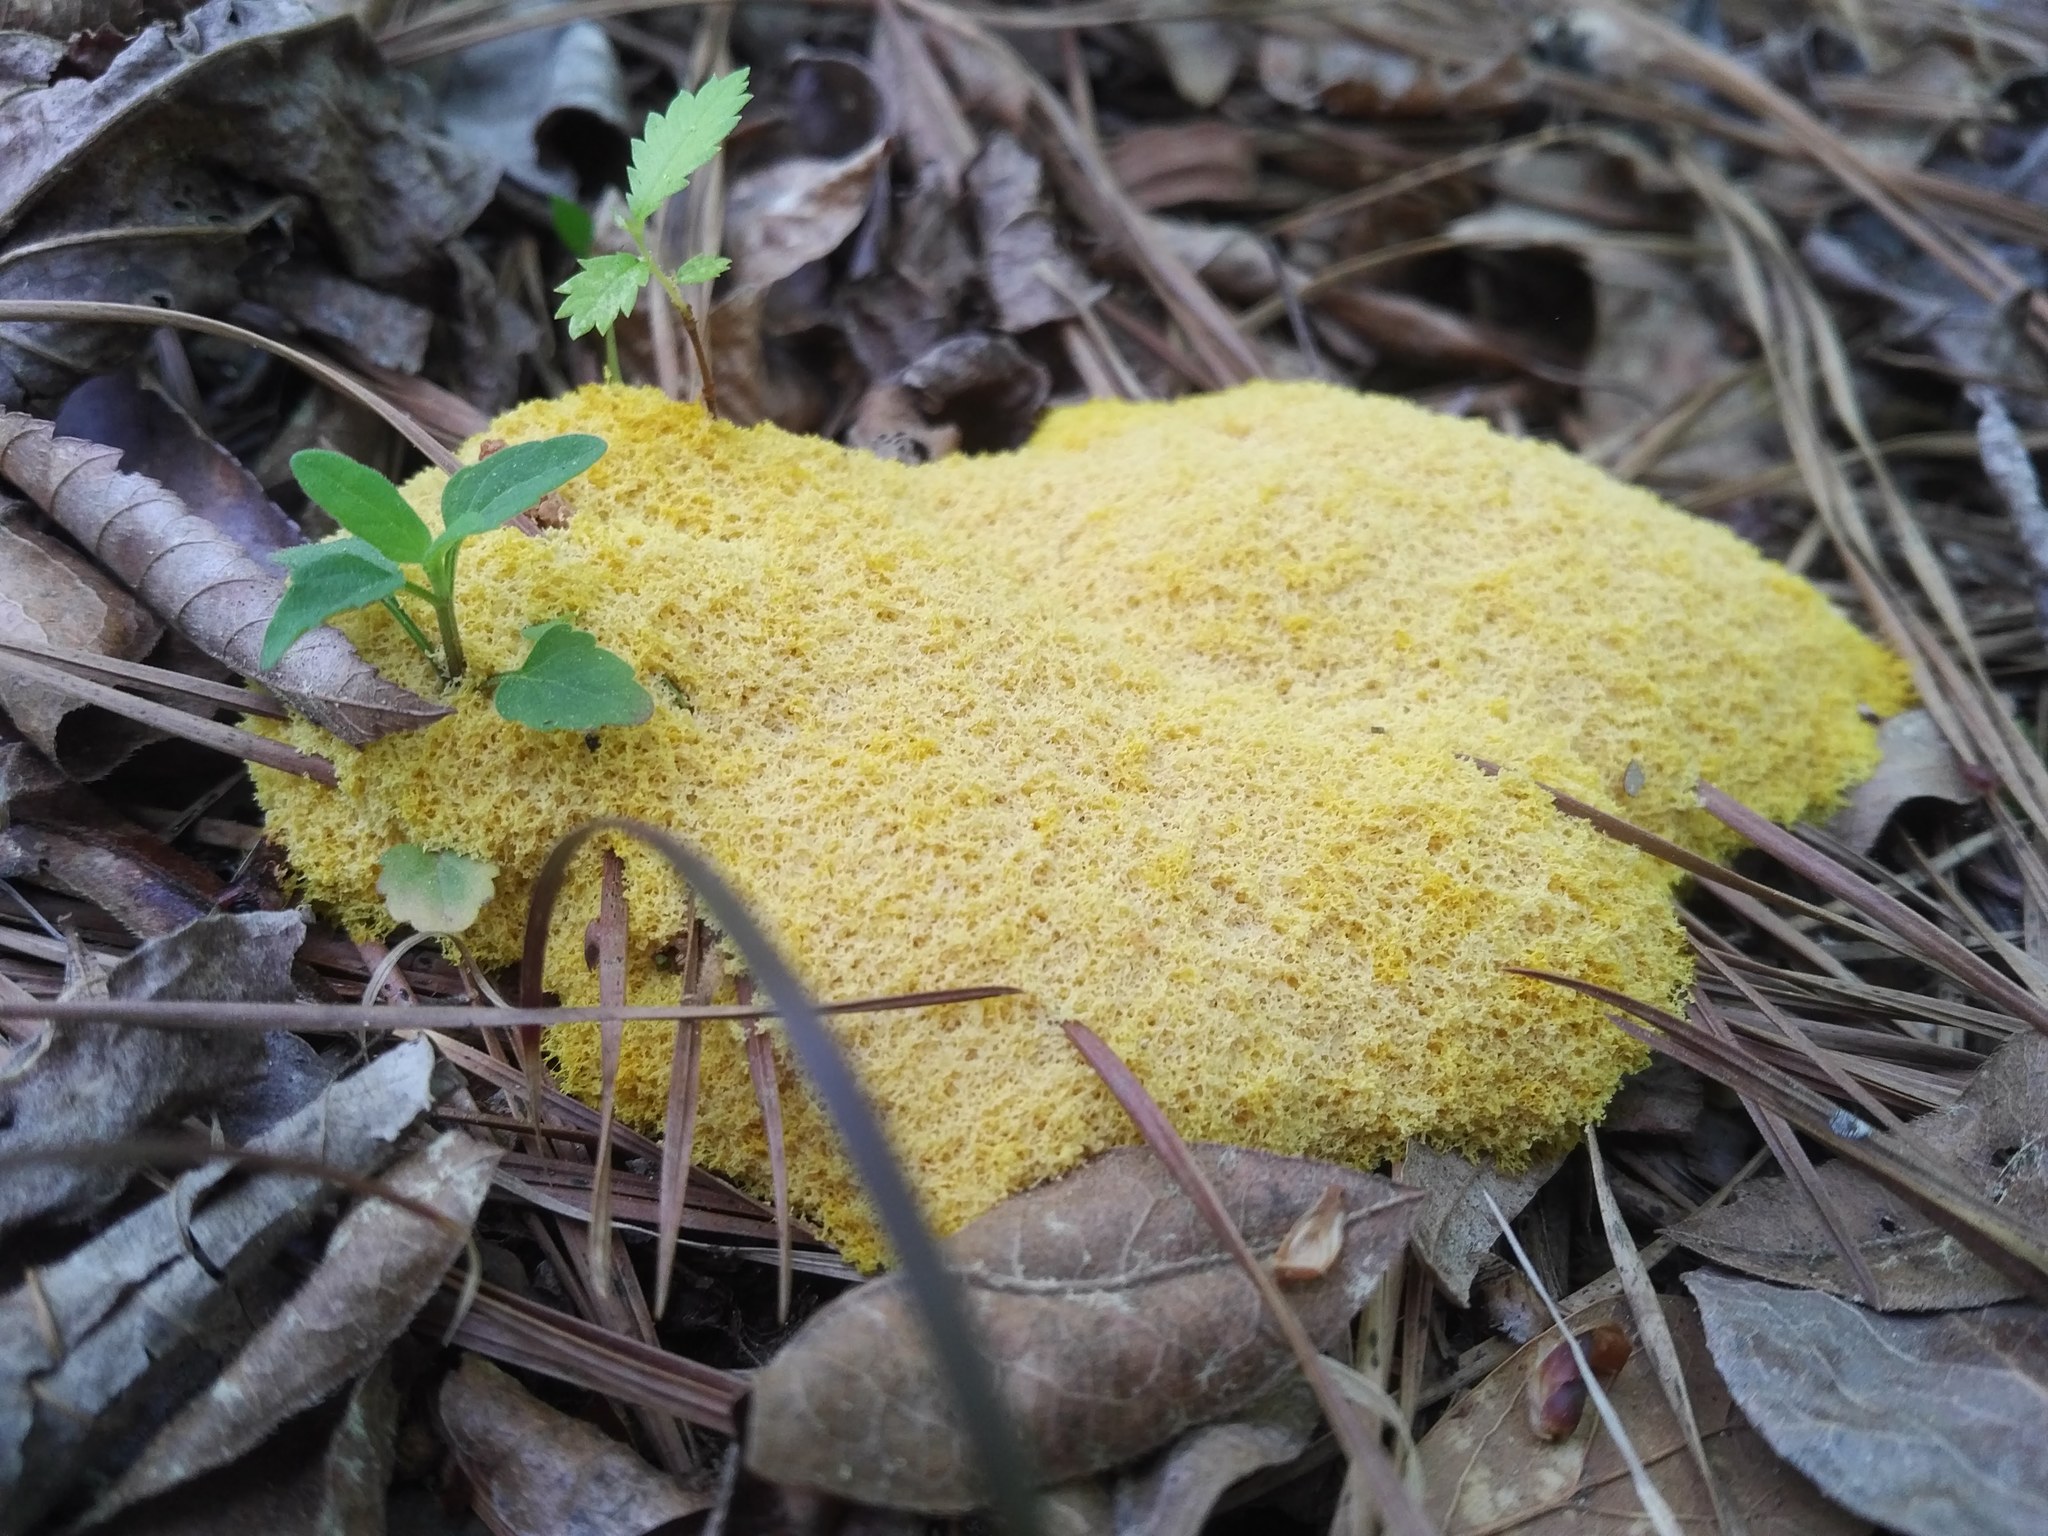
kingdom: Protozoa
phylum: Mycetozoa
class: Myxomycetes
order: Physarales
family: Physaraceae
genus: Fuligo
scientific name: Fuligo septica
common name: Dog vomit slime mold
